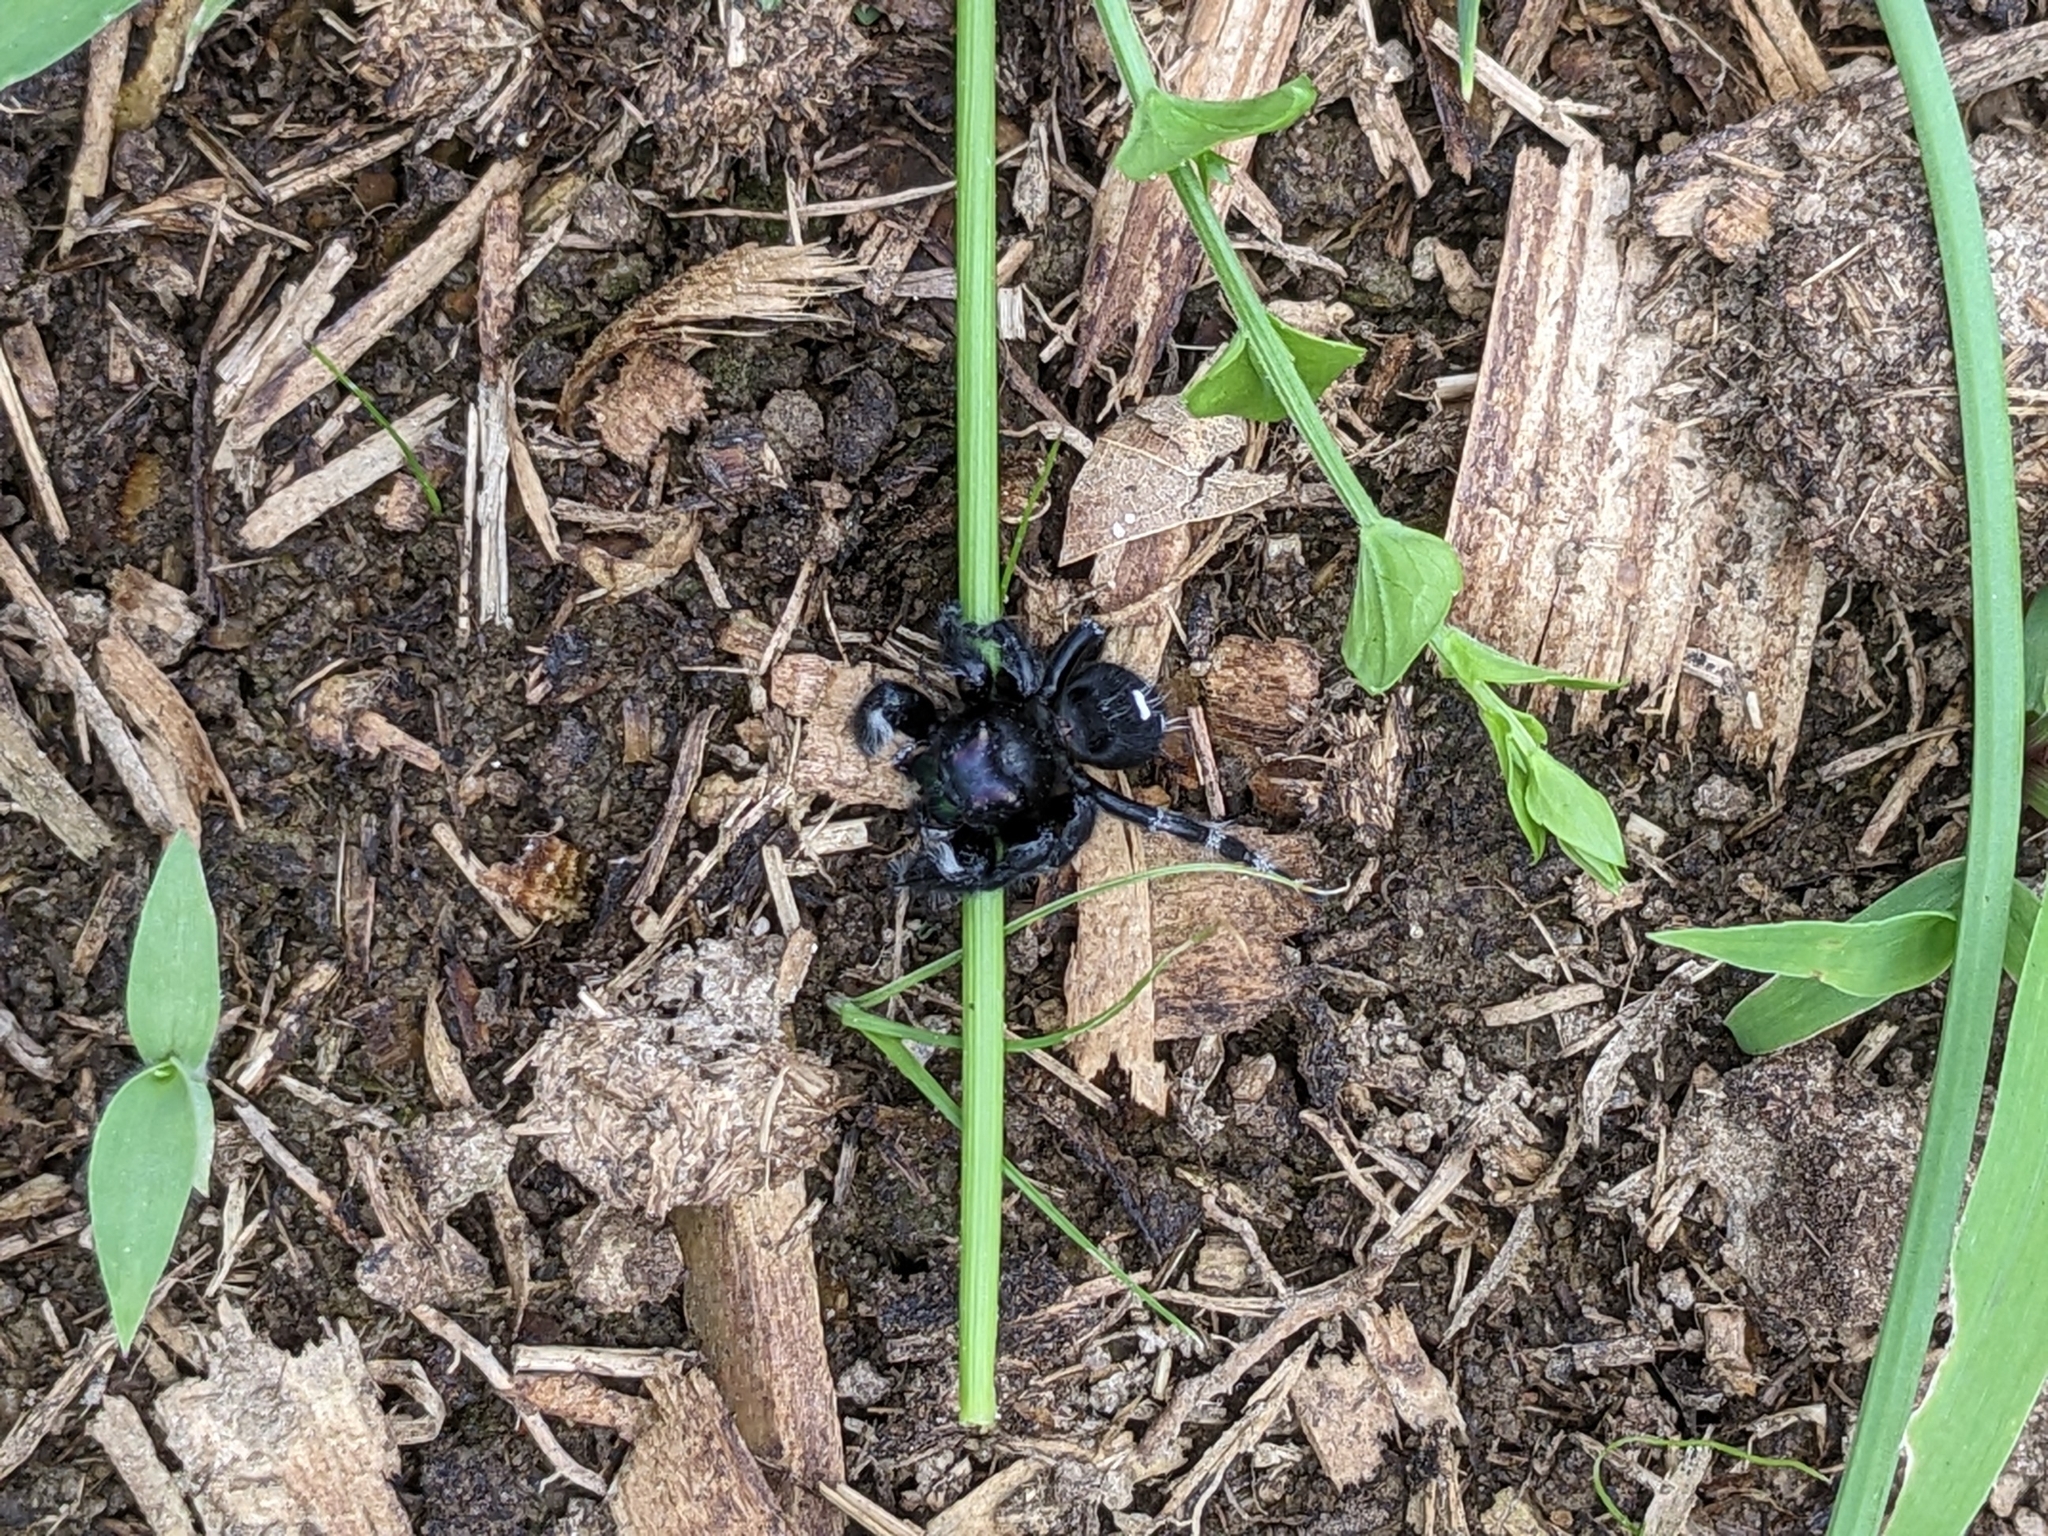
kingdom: Animalia
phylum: Arthropoda
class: Arachnida
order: Araneae
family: Salticidae
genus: Phidippus
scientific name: Phidippus audax
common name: Bold jumper
